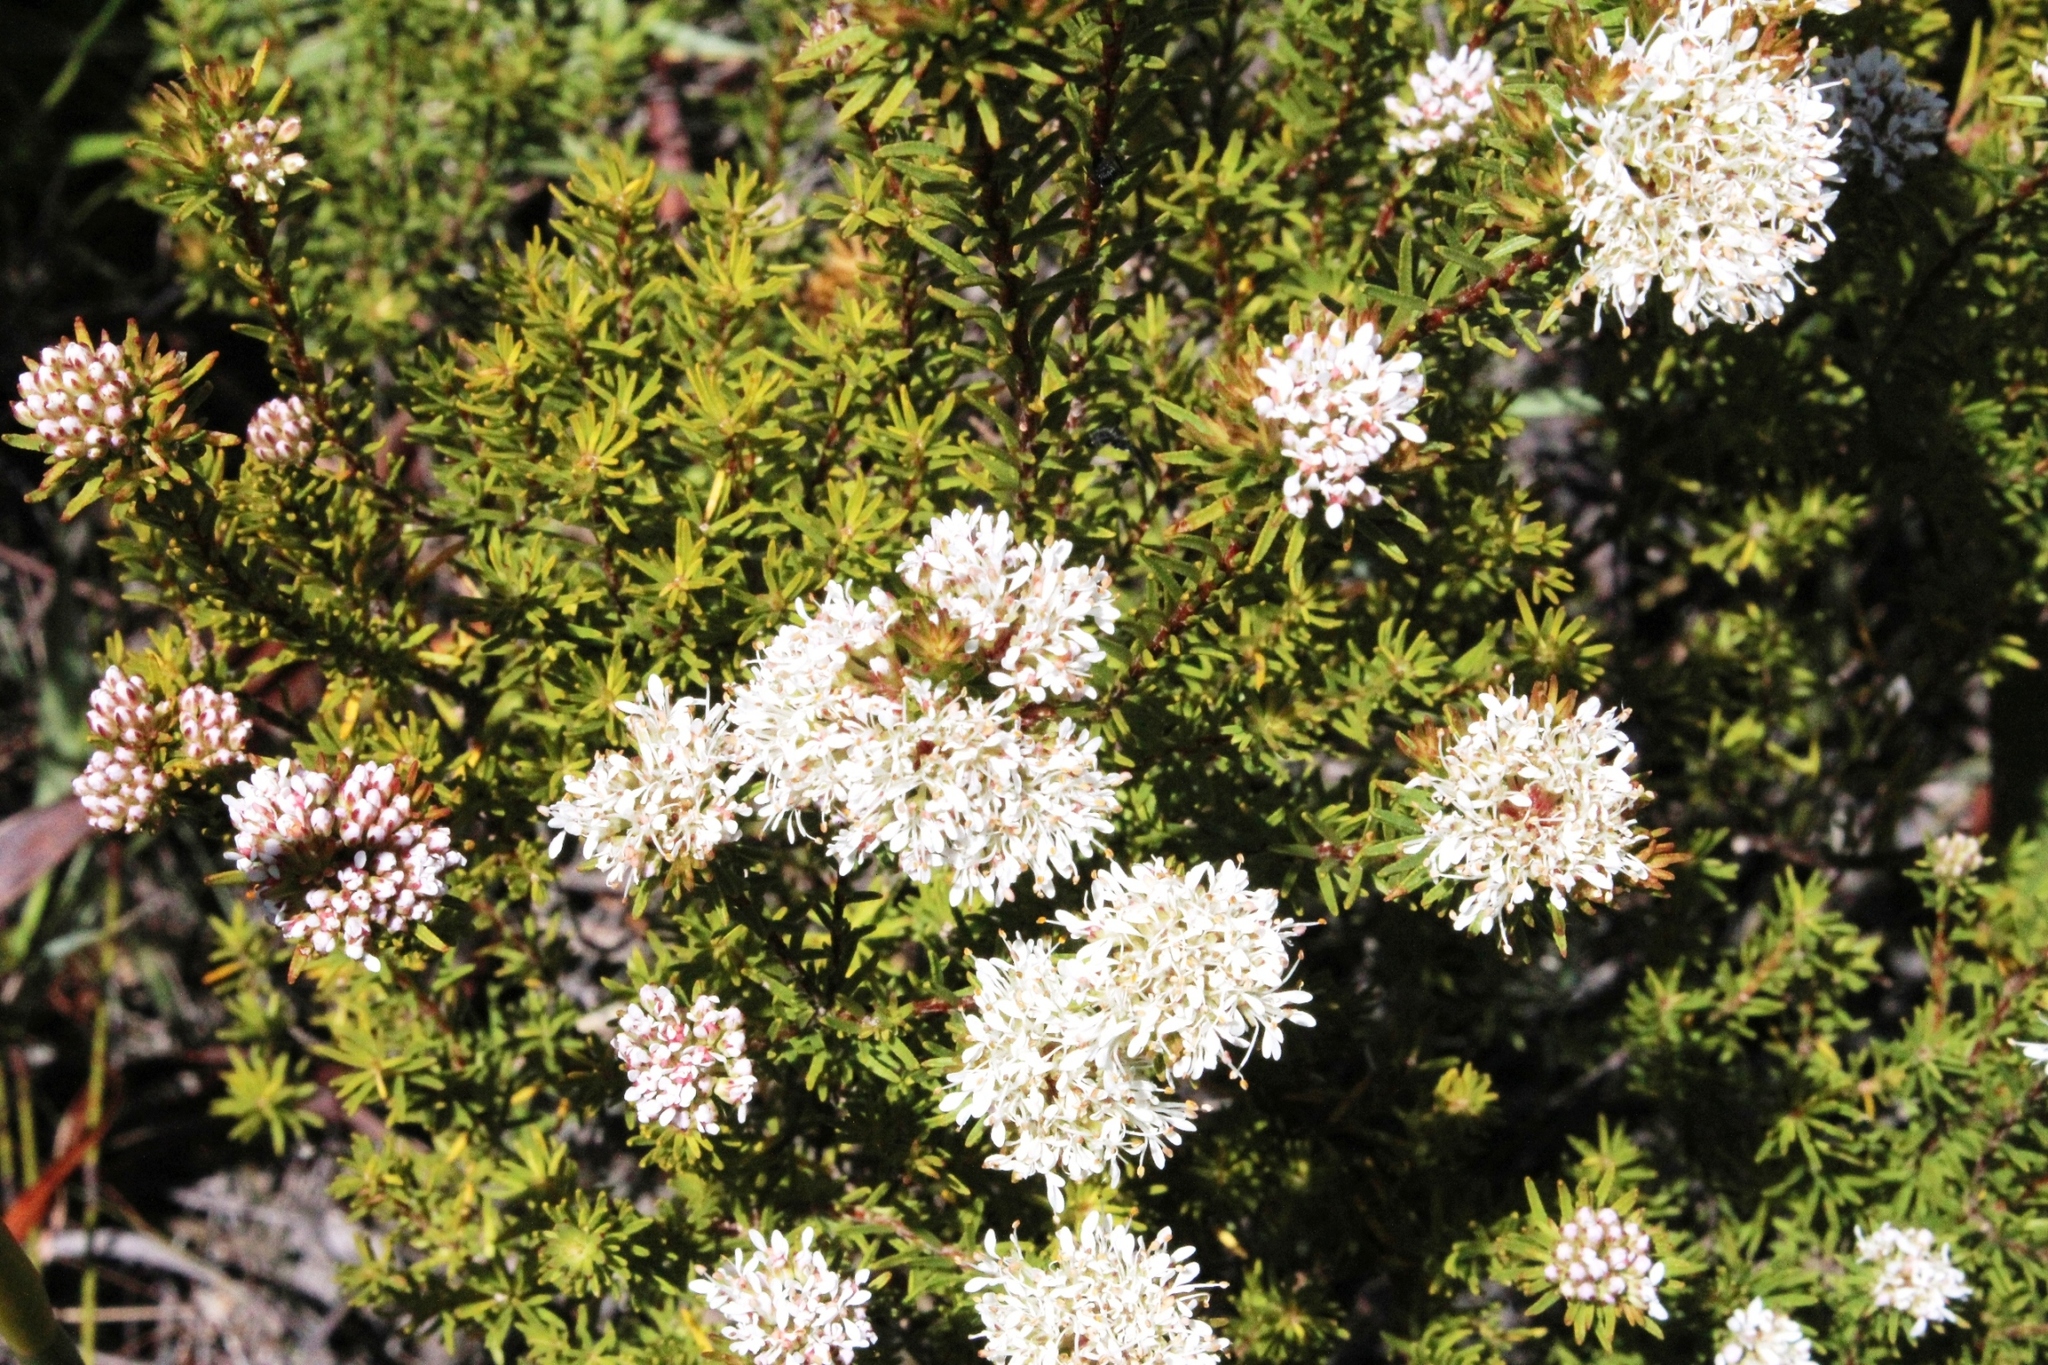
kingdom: Plantae
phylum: Tracheophyta
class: Magnoliopsida
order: Sapindales
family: Rutaceae
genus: Agathosma
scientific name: Agathosma capensis
